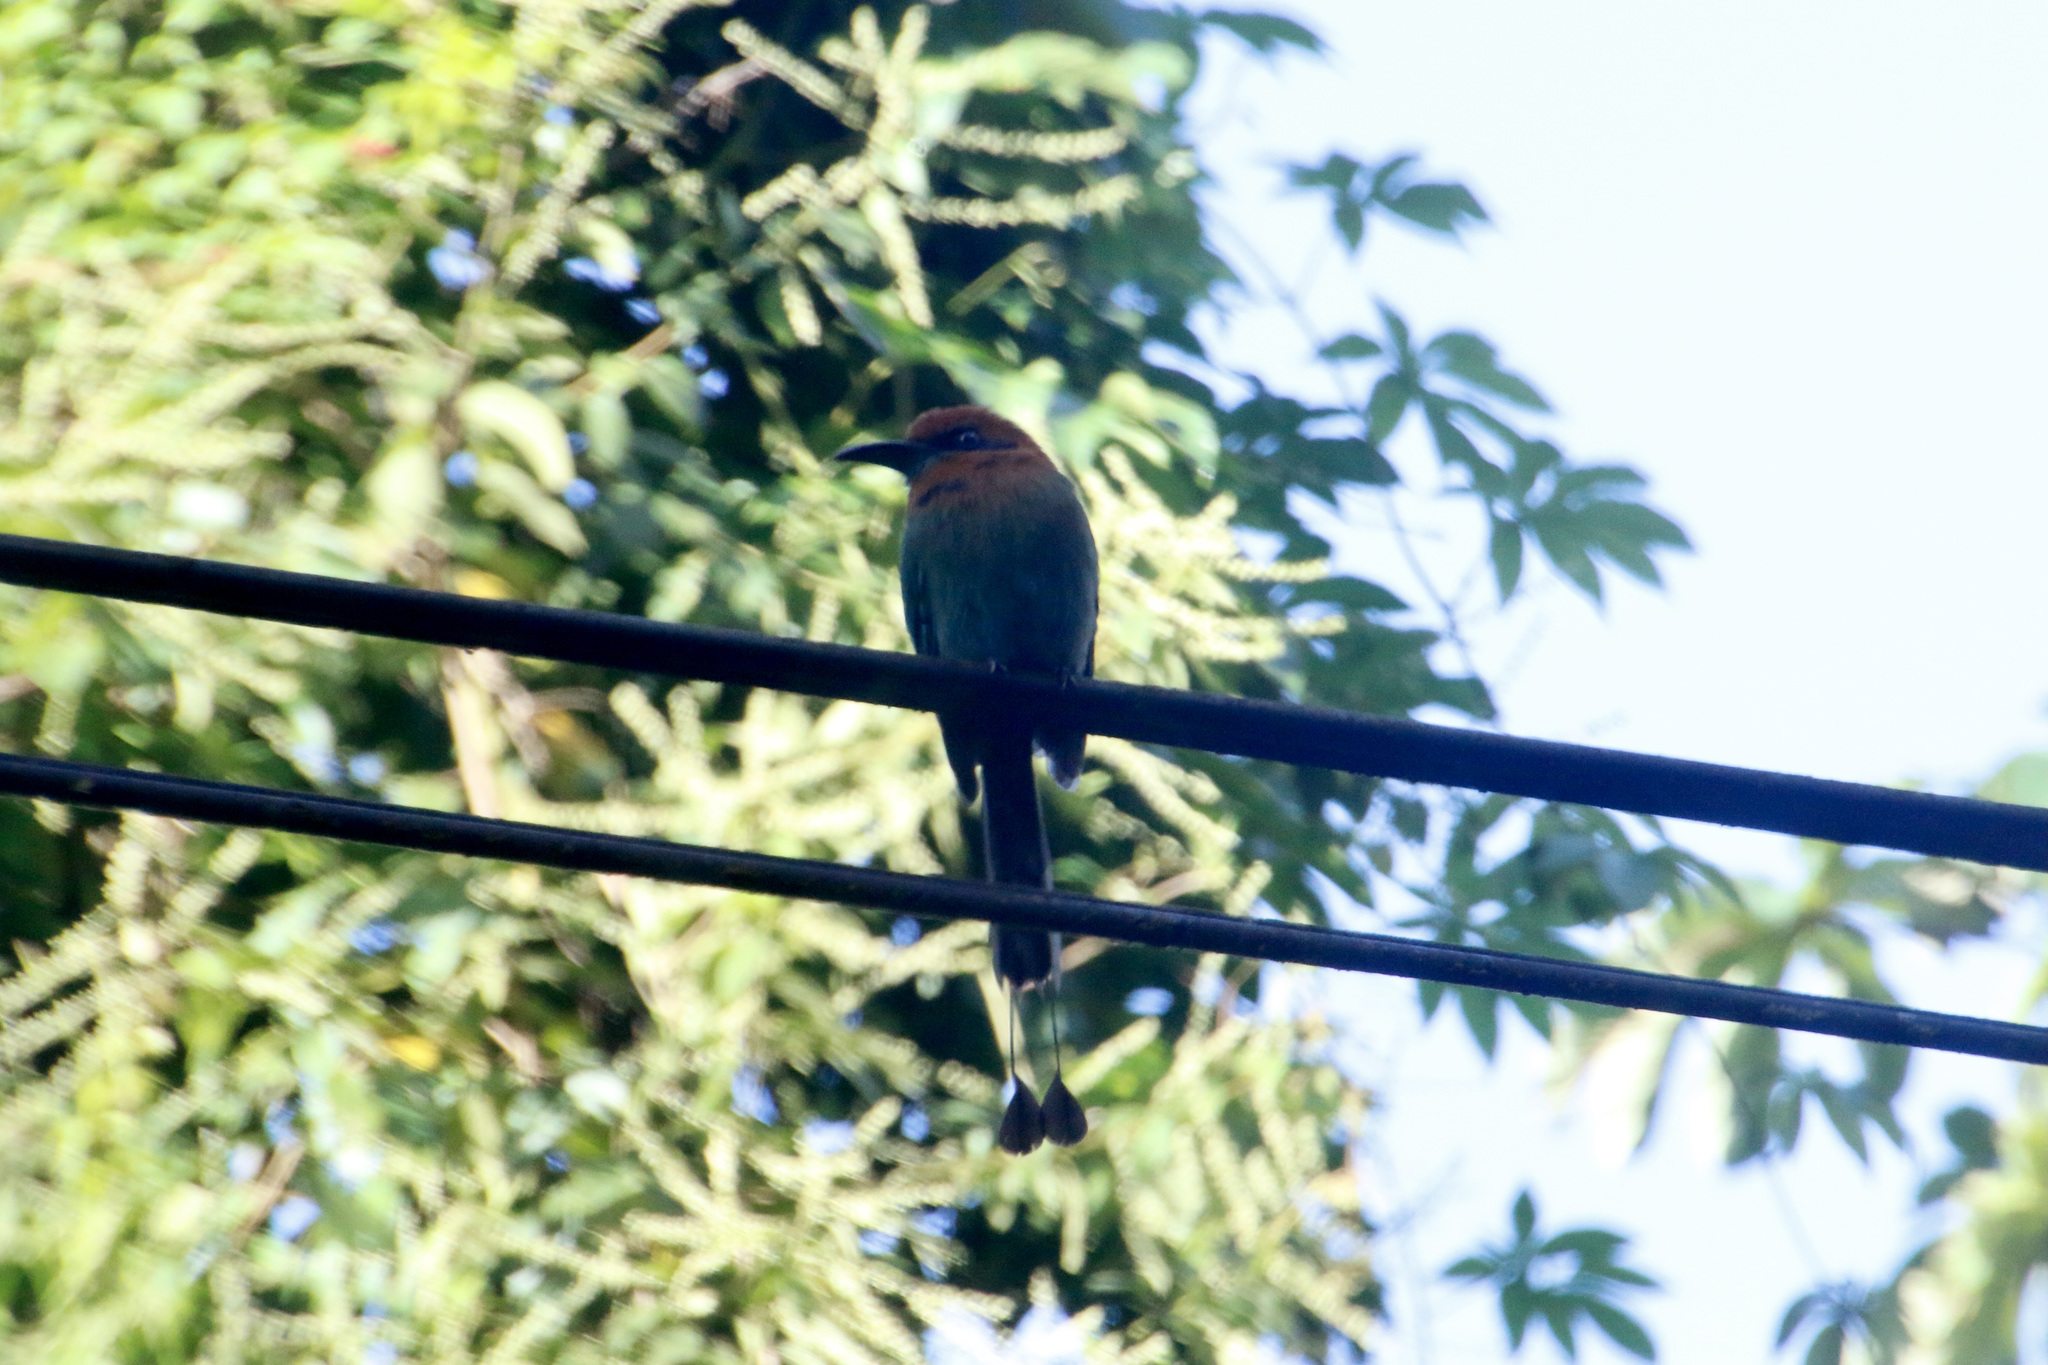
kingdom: Animalia
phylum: Chordata
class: Aves
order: Coraciiformes
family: Momotidae
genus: Electron
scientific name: Electron platyrhynchum
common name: Broad-billed motmot
